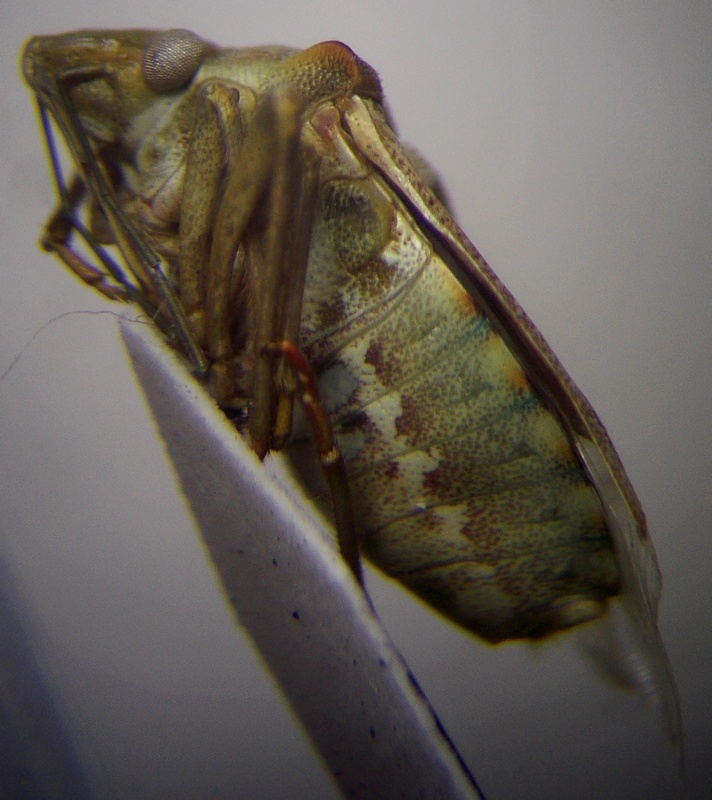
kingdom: Animalia
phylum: Arthropoda
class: Insecta
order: Hemiptera
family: Pentatomidae
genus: Croantha
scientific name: Croantha ornatula
